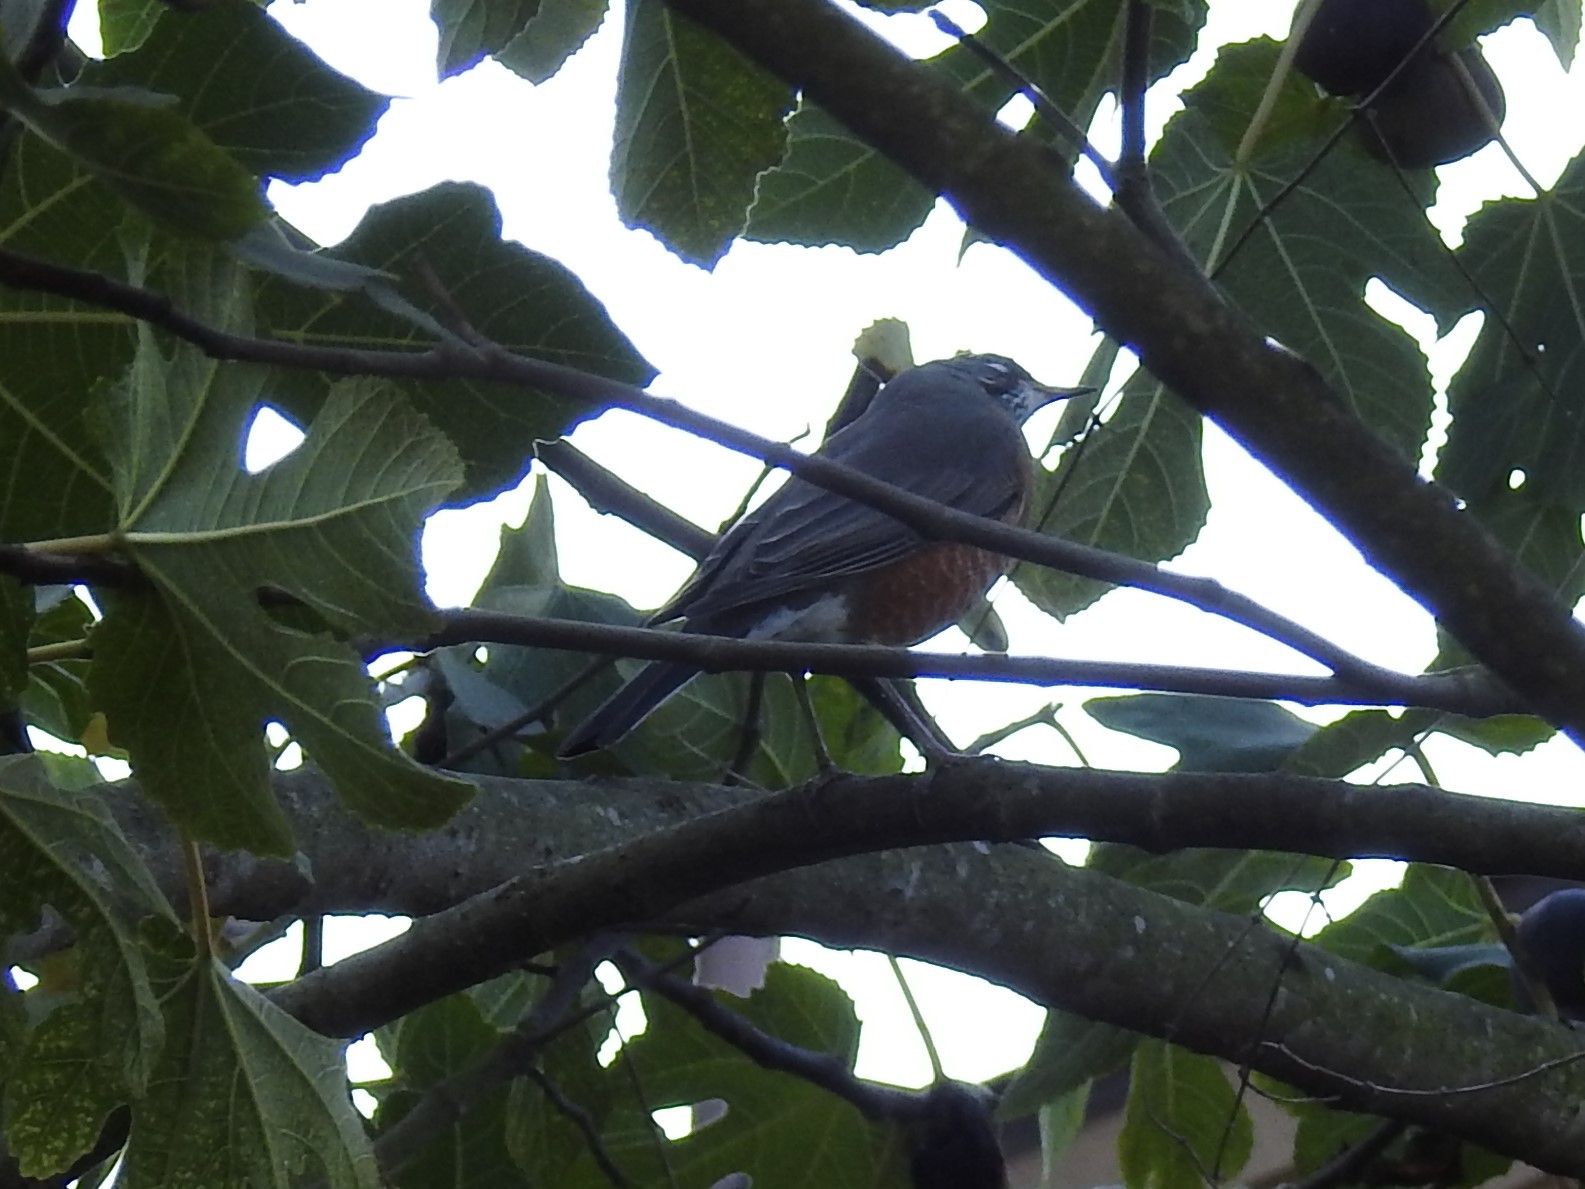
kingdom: Animalia
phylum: Chordata
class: Aves
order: Passeriformes
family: Turdidae
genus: Turdus
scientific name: Turdus migratorius
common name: American robin
